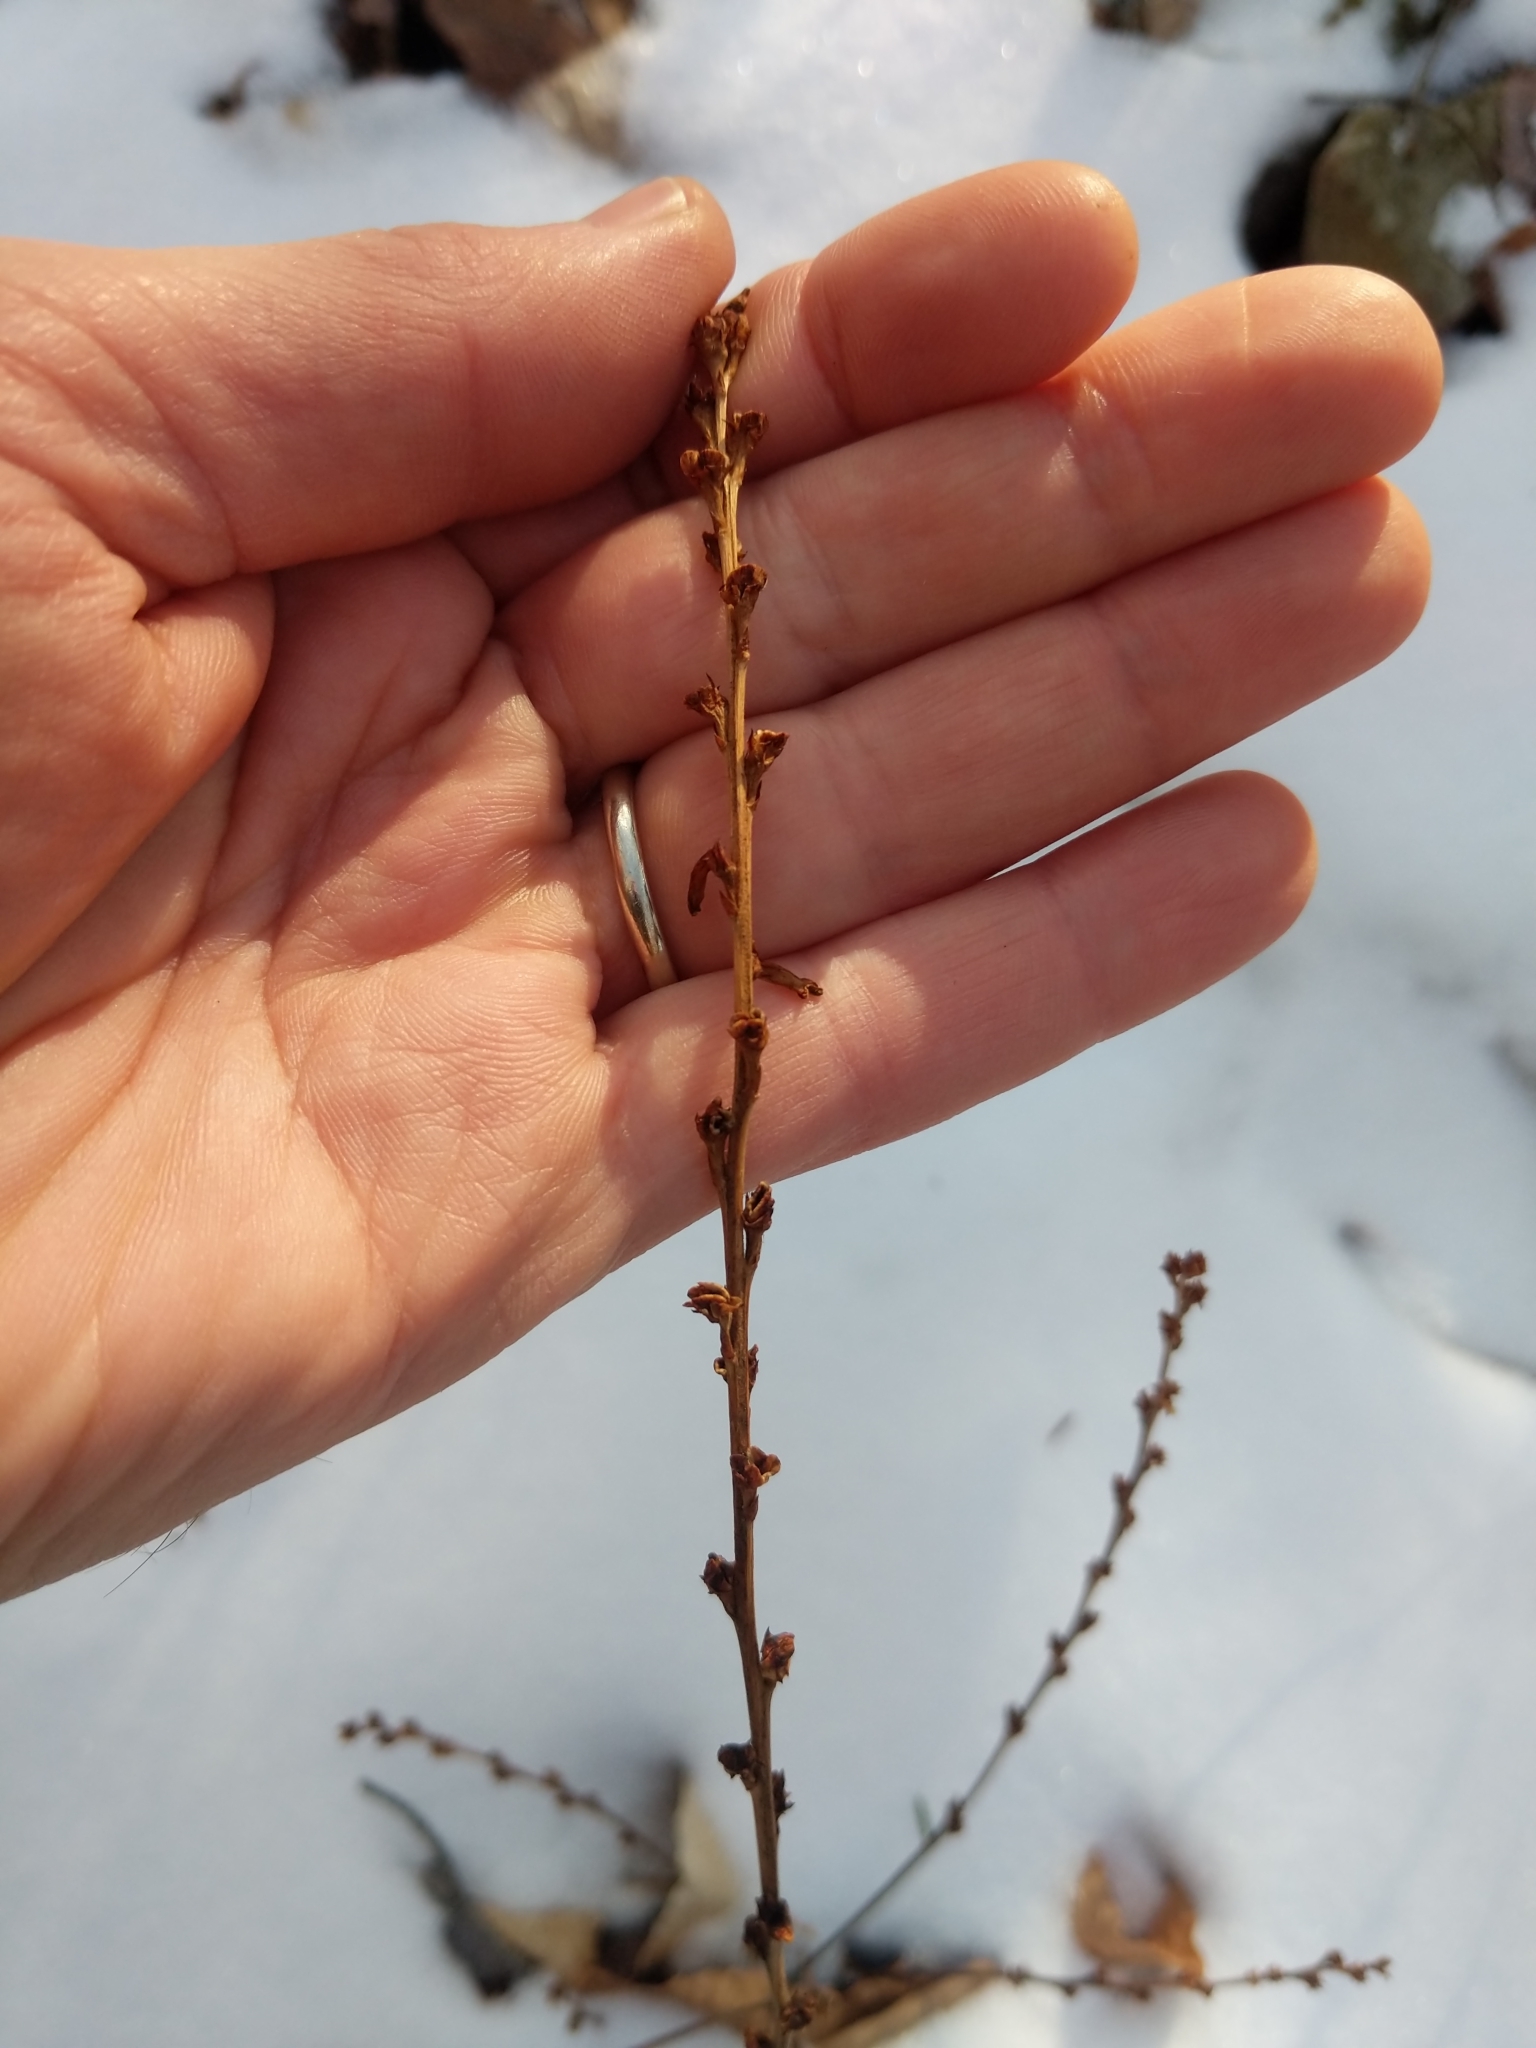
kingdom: Plantae
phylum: Tracheophyta
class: Magnoliopsida
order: Lamiales
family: Orobanchaceae
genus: Epifagus
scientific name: Epifagus virginiana
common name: Beechdrops
